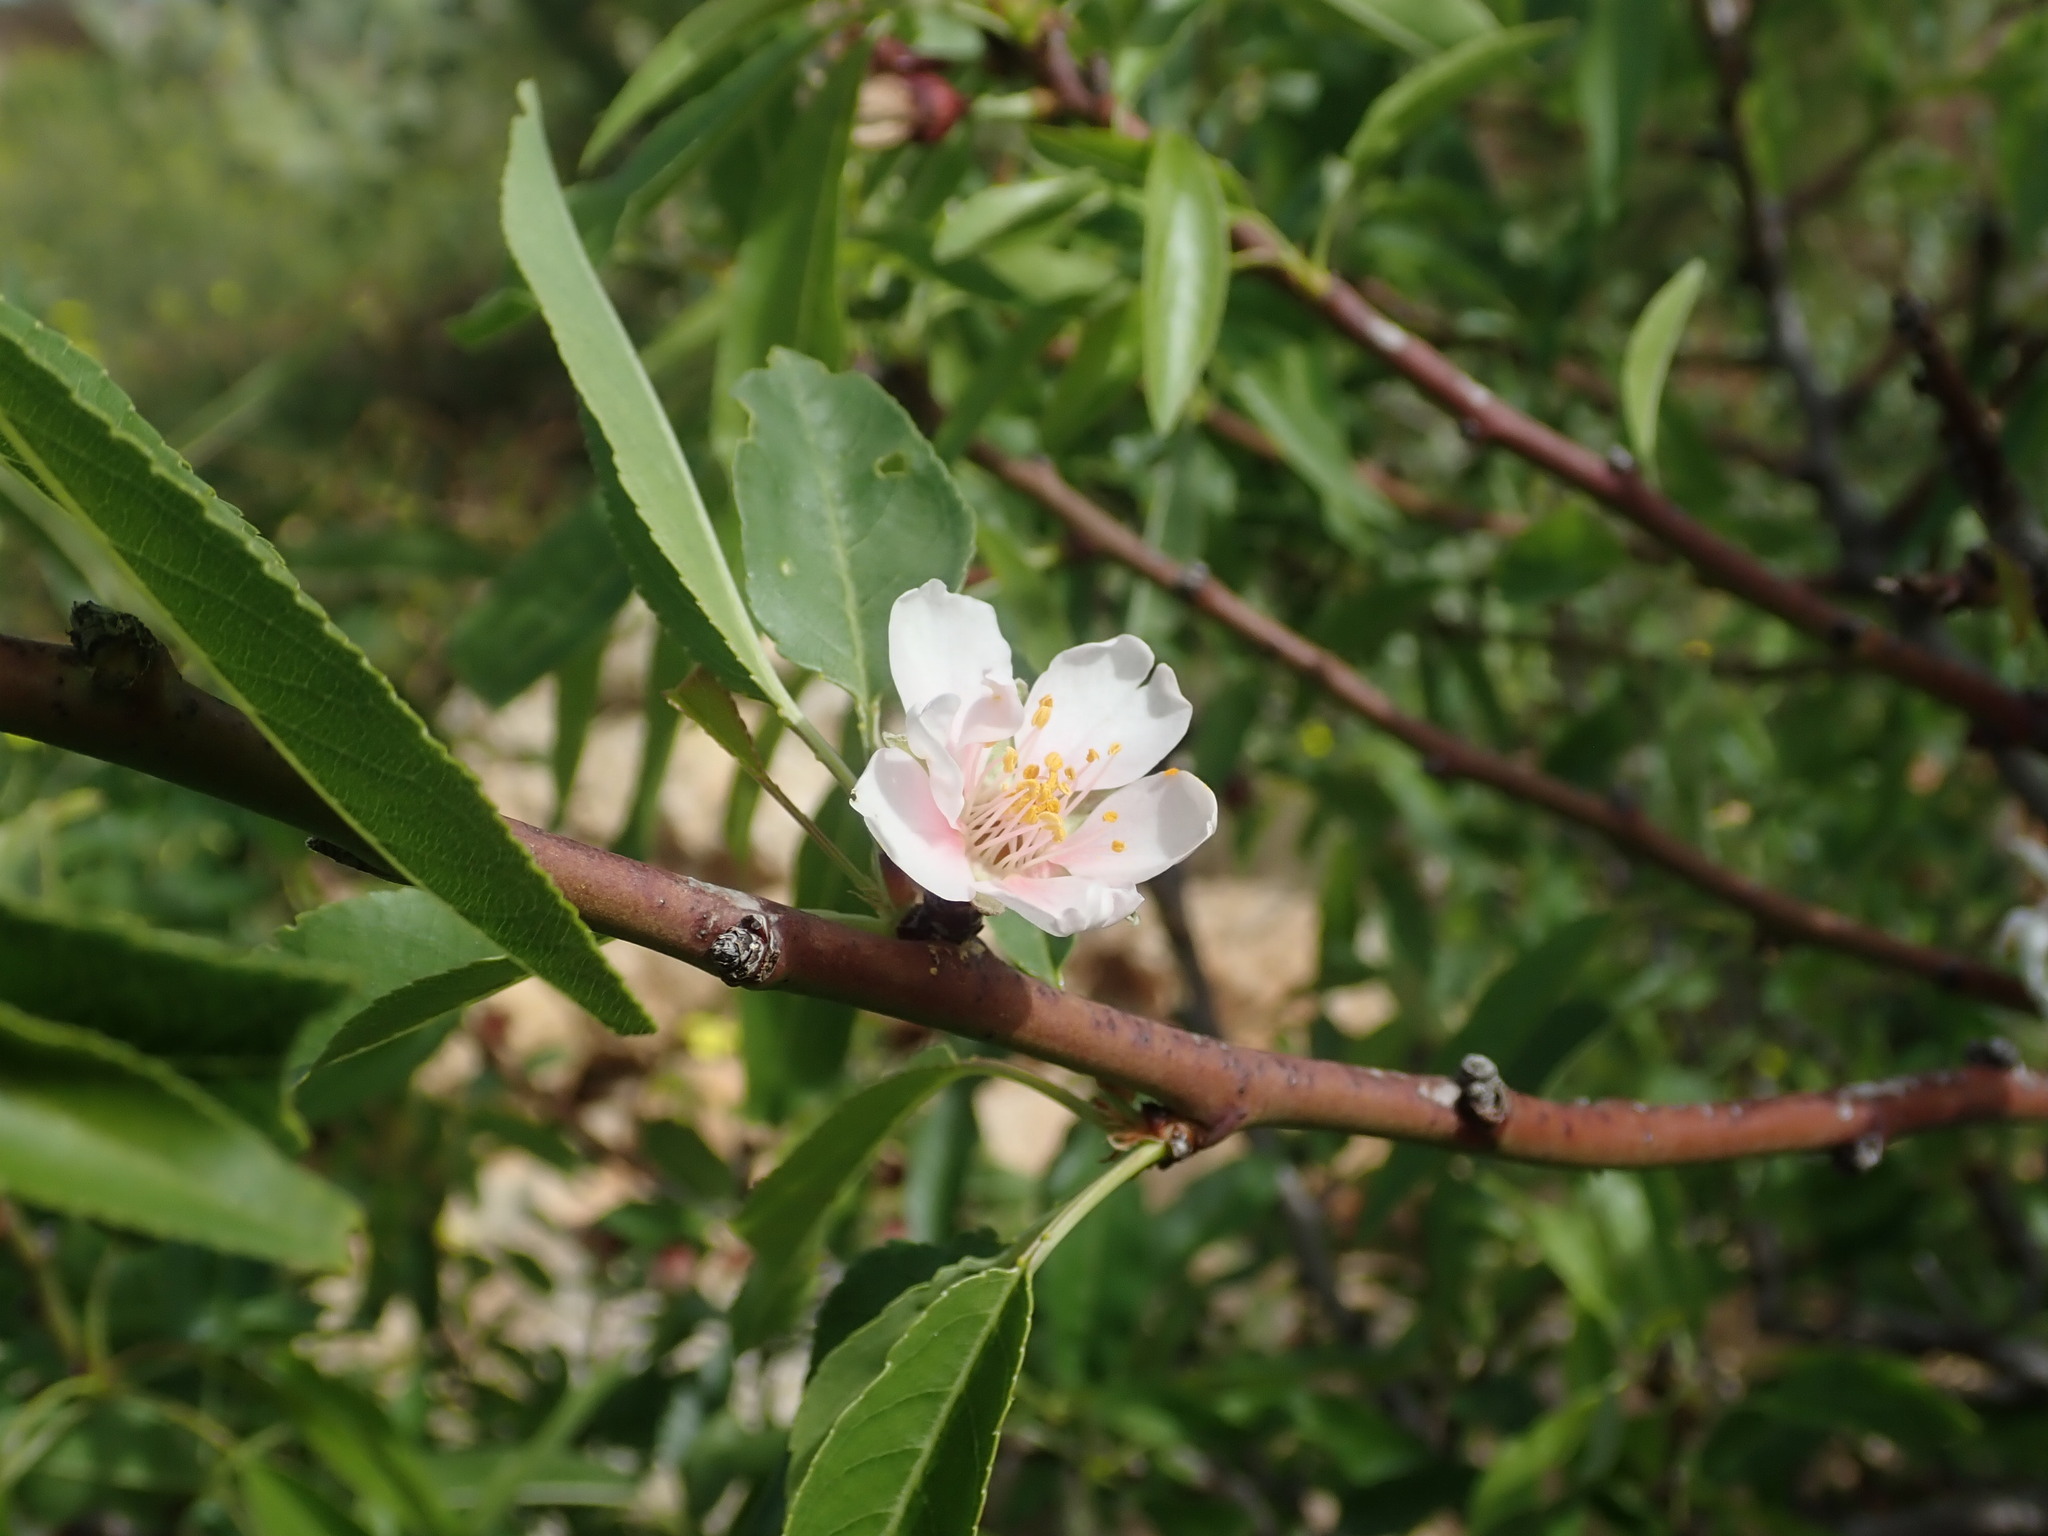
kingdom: Plantae
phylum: Tracheophyta
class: Magnoliopsida
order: Rosales
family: Rosaceae
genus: Prunus
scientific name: Prunus amygdalus
